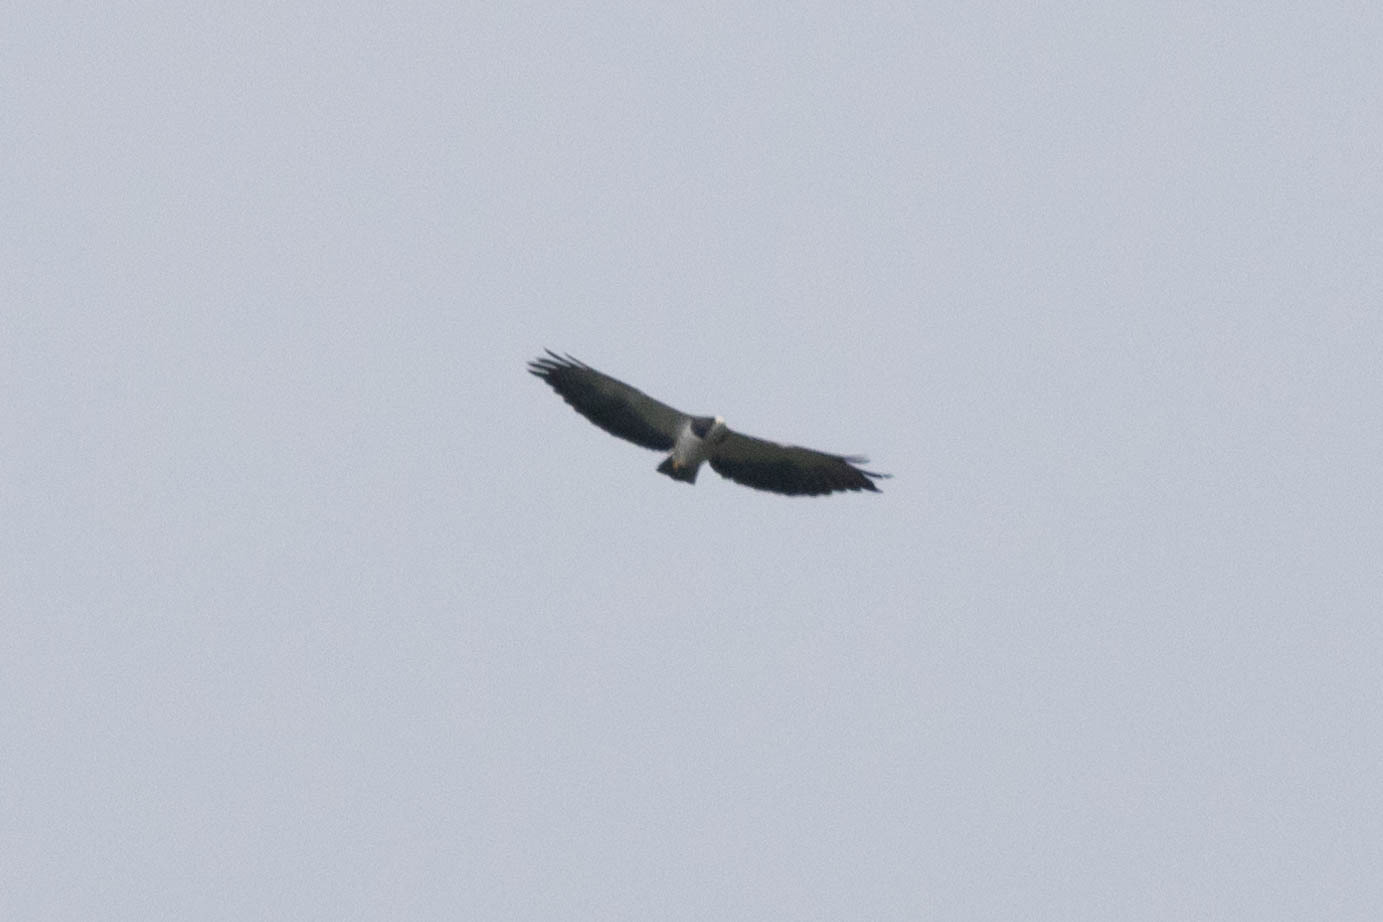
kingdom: Animalia
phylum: Chordata
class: Aves
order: Accipitriformes
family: Accipitridae
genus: Buteo
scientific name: Buteo brachyurus
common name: Short-tailed hawk
